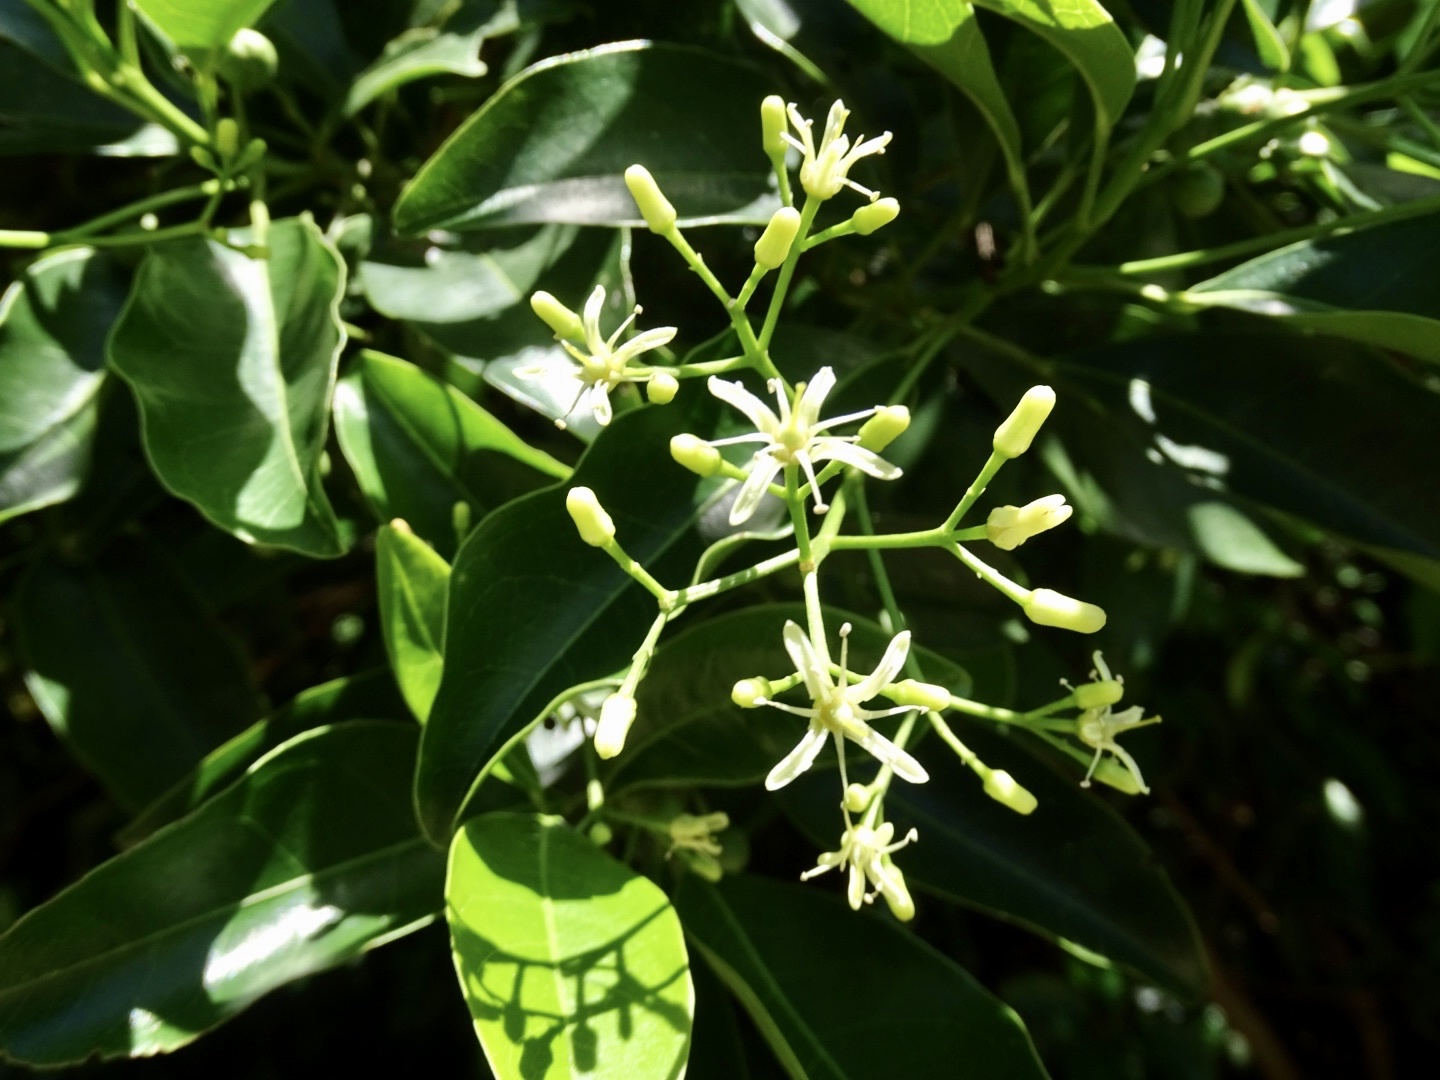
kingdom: Plantae
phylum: Tracheophyta
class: Magnoliopsida
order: Sapindales
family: Rutaceae
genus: Acronychia
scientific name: Acronychia pedunculata
